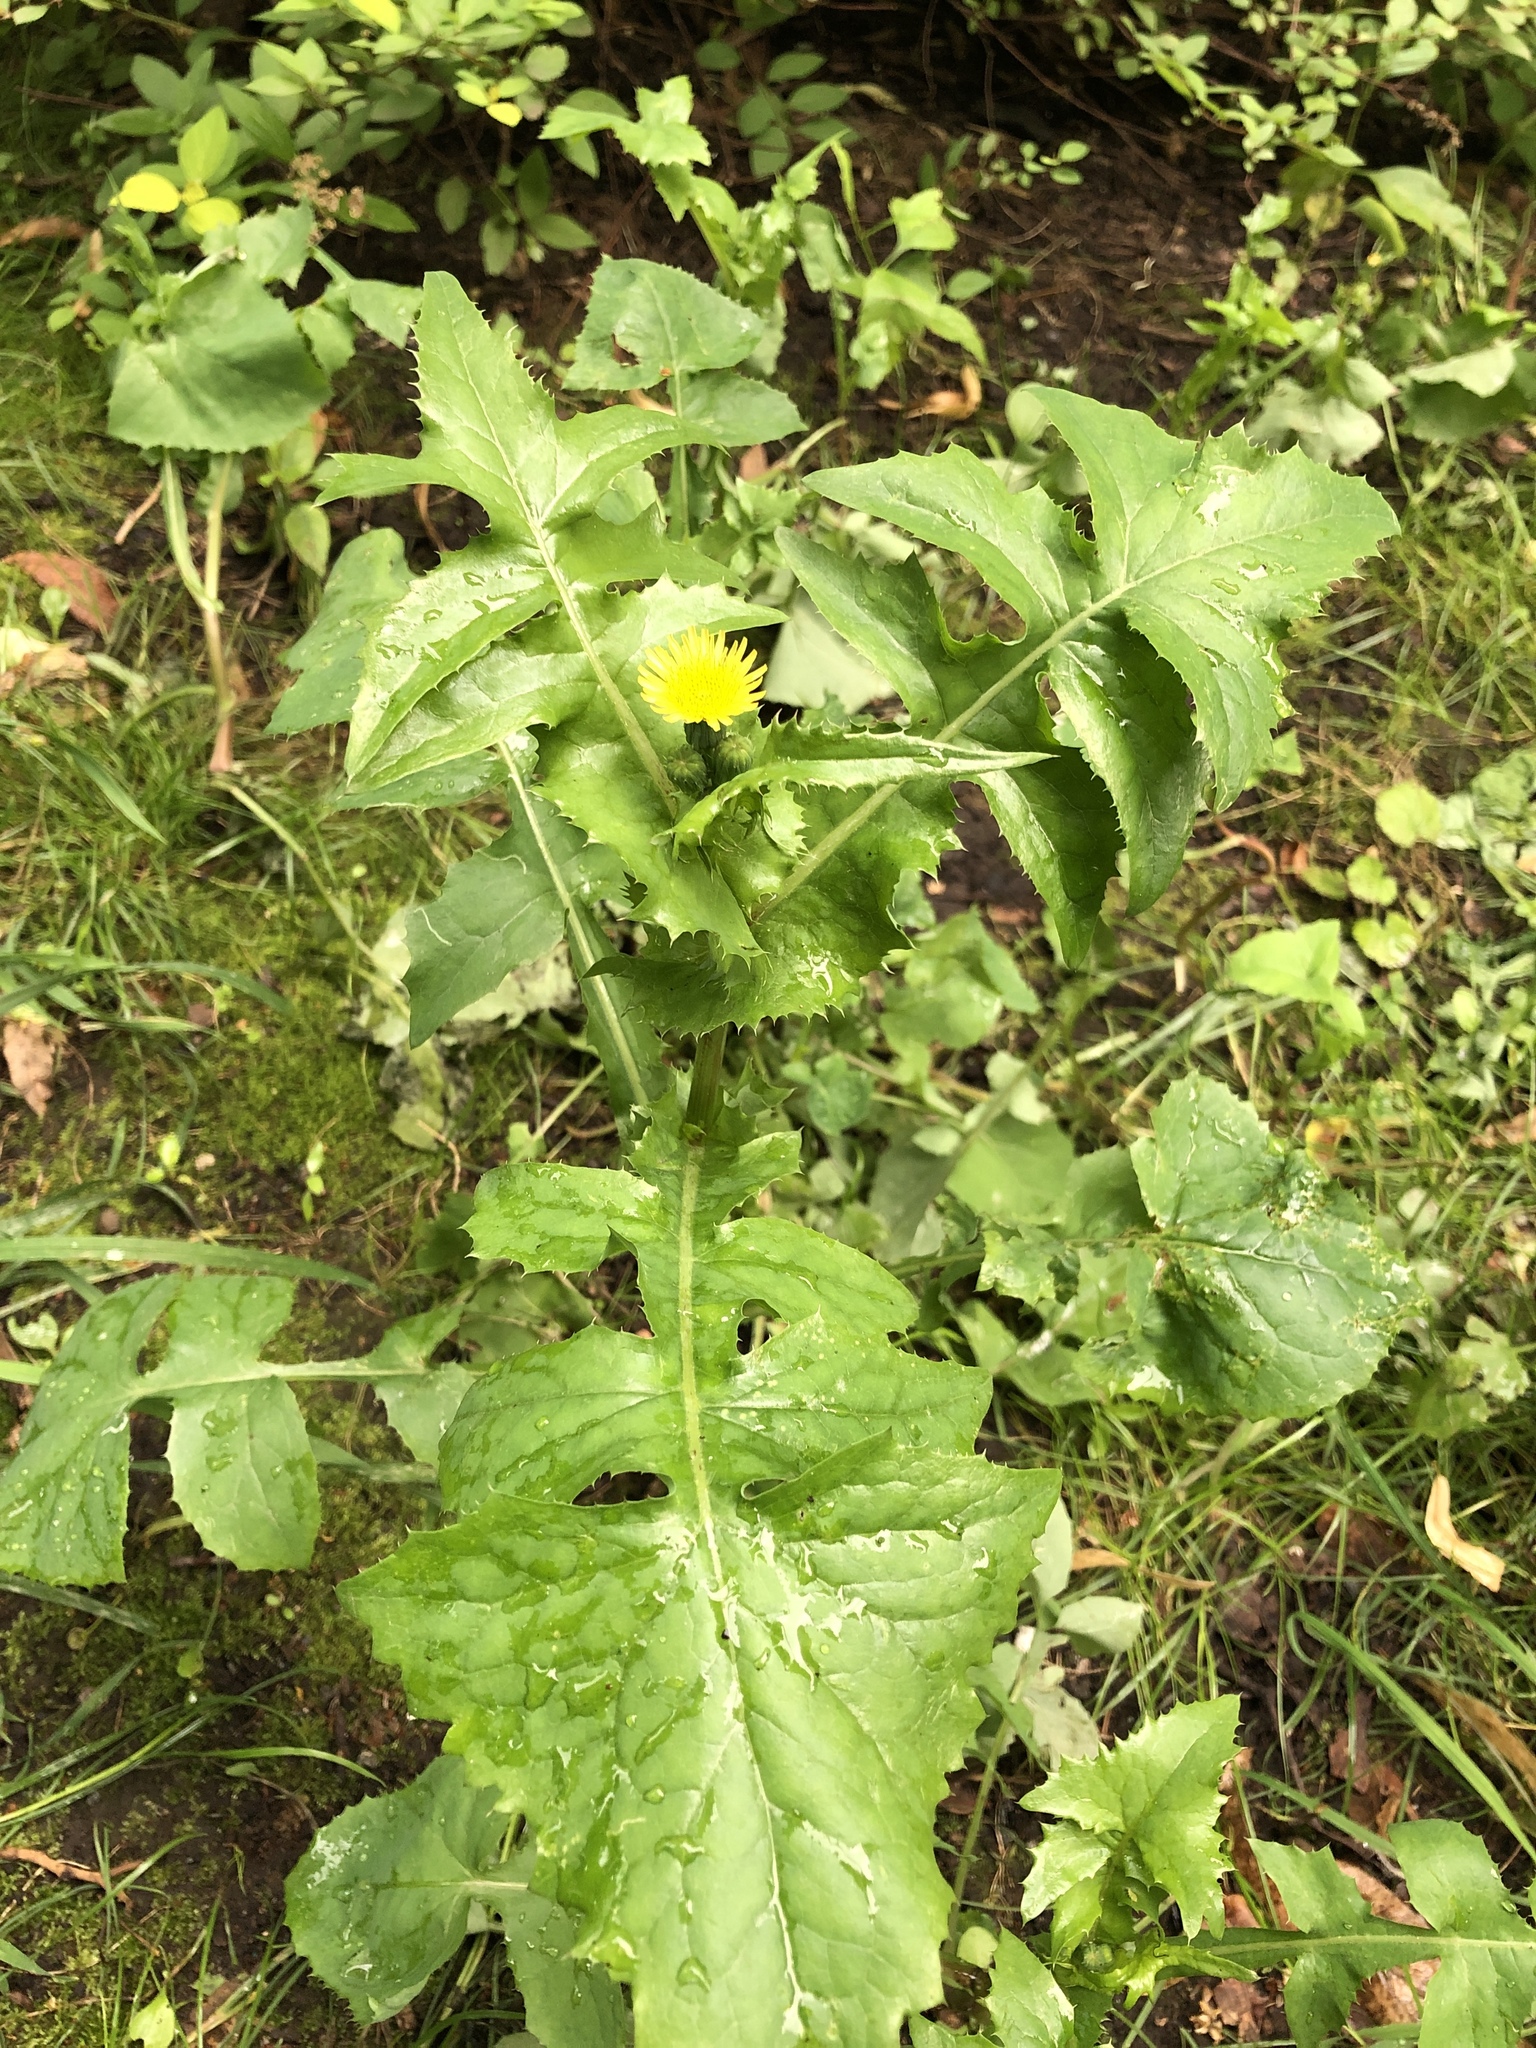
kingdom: Plantae
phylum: Tracheophyta
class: Magnoliopsida
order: Asterales
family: Asteraceae
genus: Sonchus
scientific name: Sonchus oleraceus
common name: Common sowthistle
